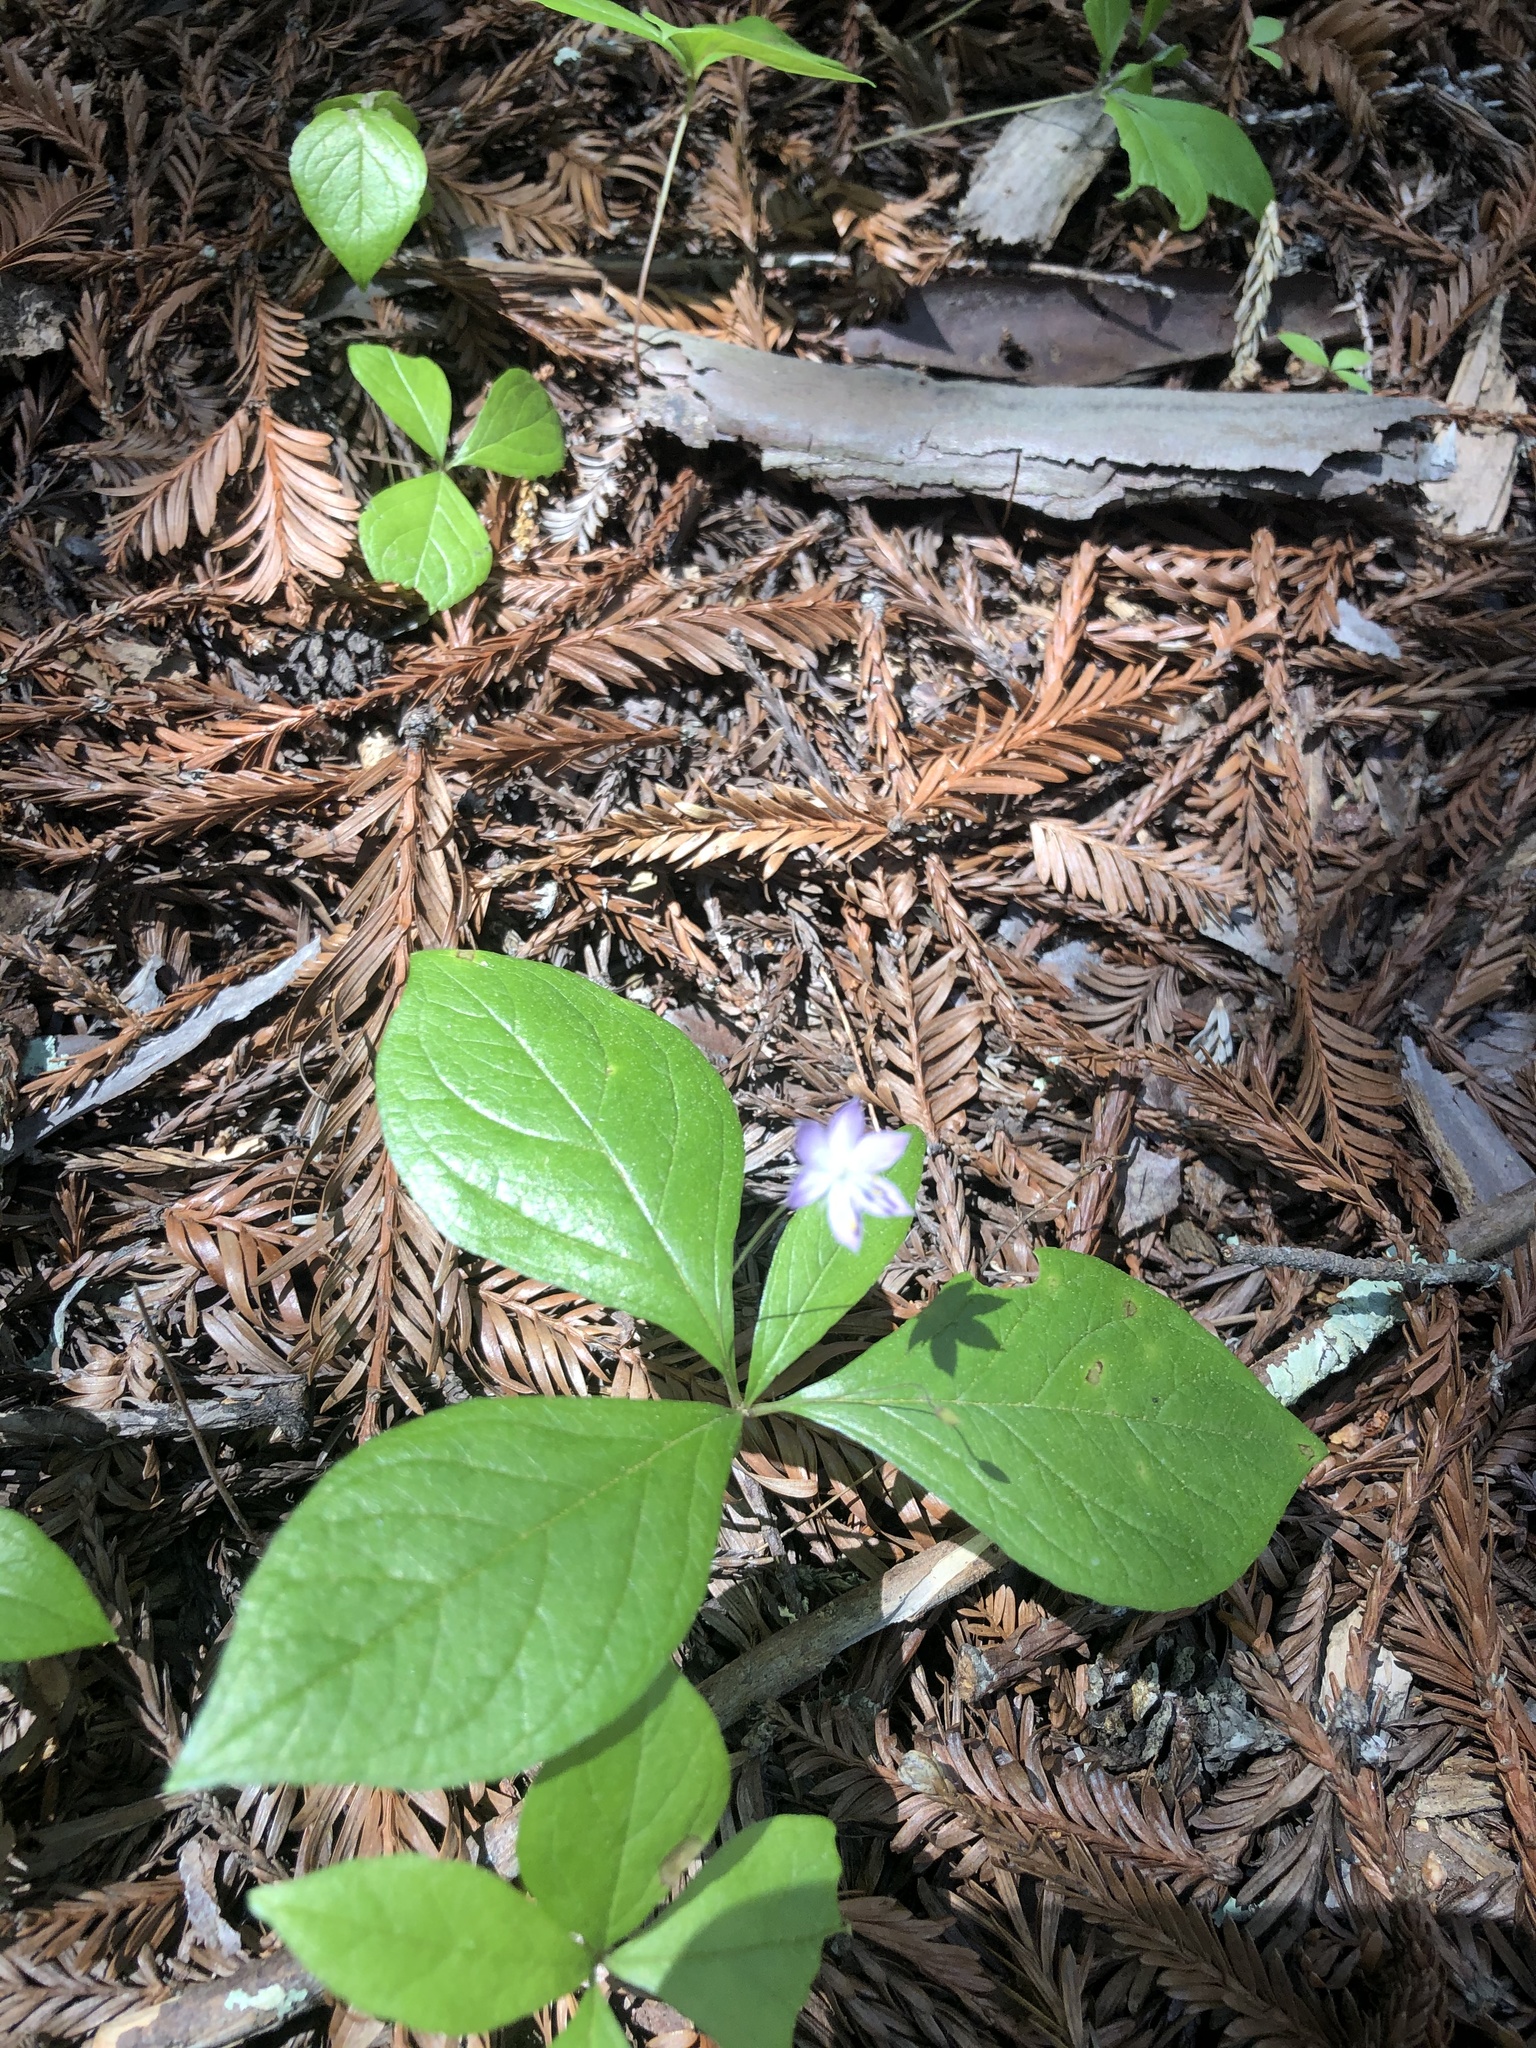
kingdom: Plantae
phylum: Tracheophyta
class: Magnoliopsida
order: Ericales
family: Primulaceae
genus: Lysimachia
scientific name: Lysimachia latifolia
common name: Pacific starflower
